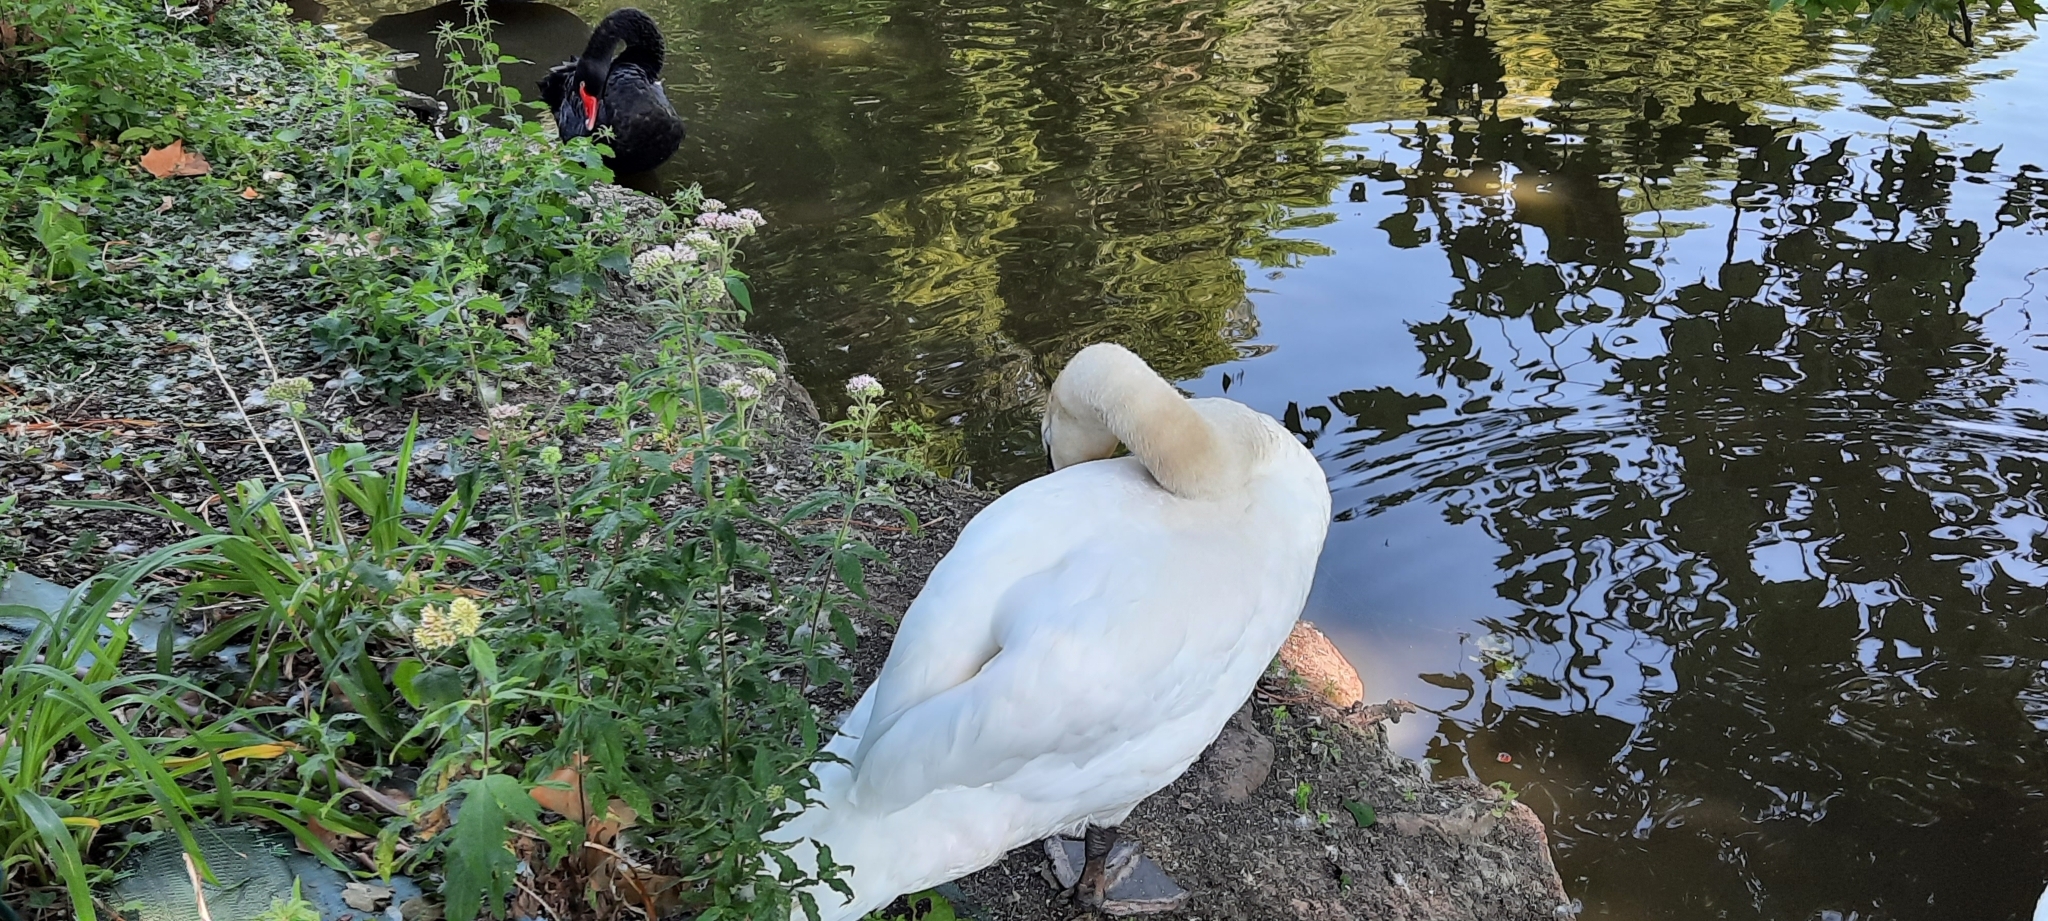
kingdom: Animalia
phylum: Chordata
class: Aves
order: Anseriformes
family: Anatidae
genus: Cygnus
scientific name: Cygnus olor
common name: Mute swan
